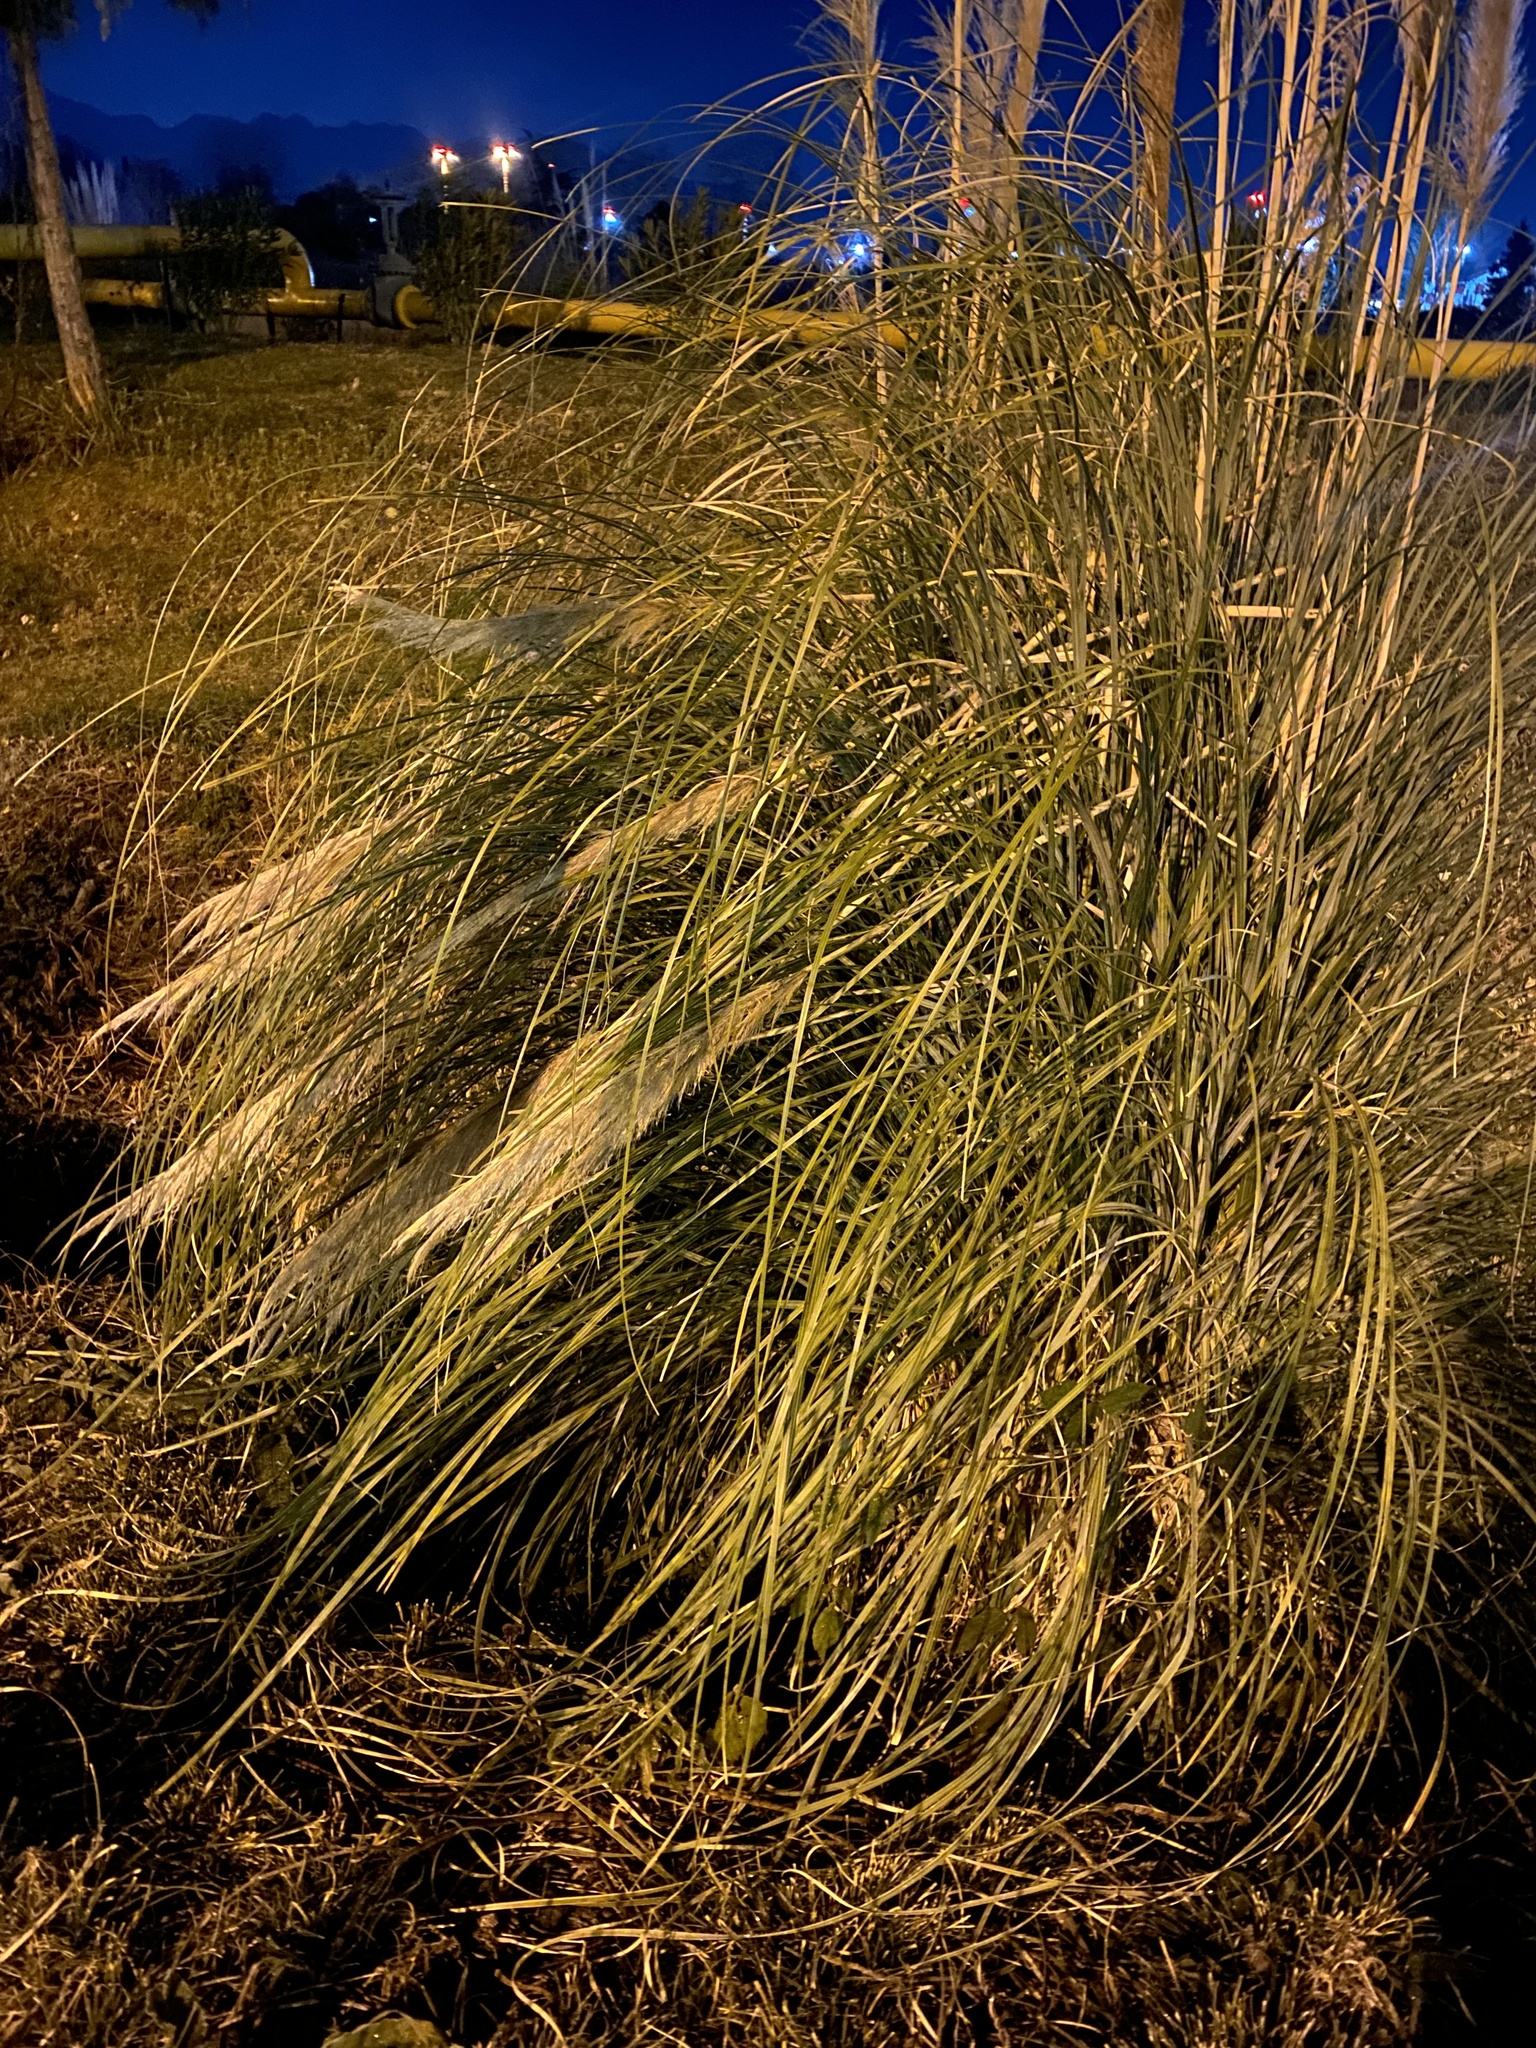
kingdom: Plantae
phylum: Tracheophyta
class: Liliopsida
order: Poales
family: Poaceae
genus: Cortaderia
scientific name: Cortaderia selloana
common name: Uruguayan pampas grass
